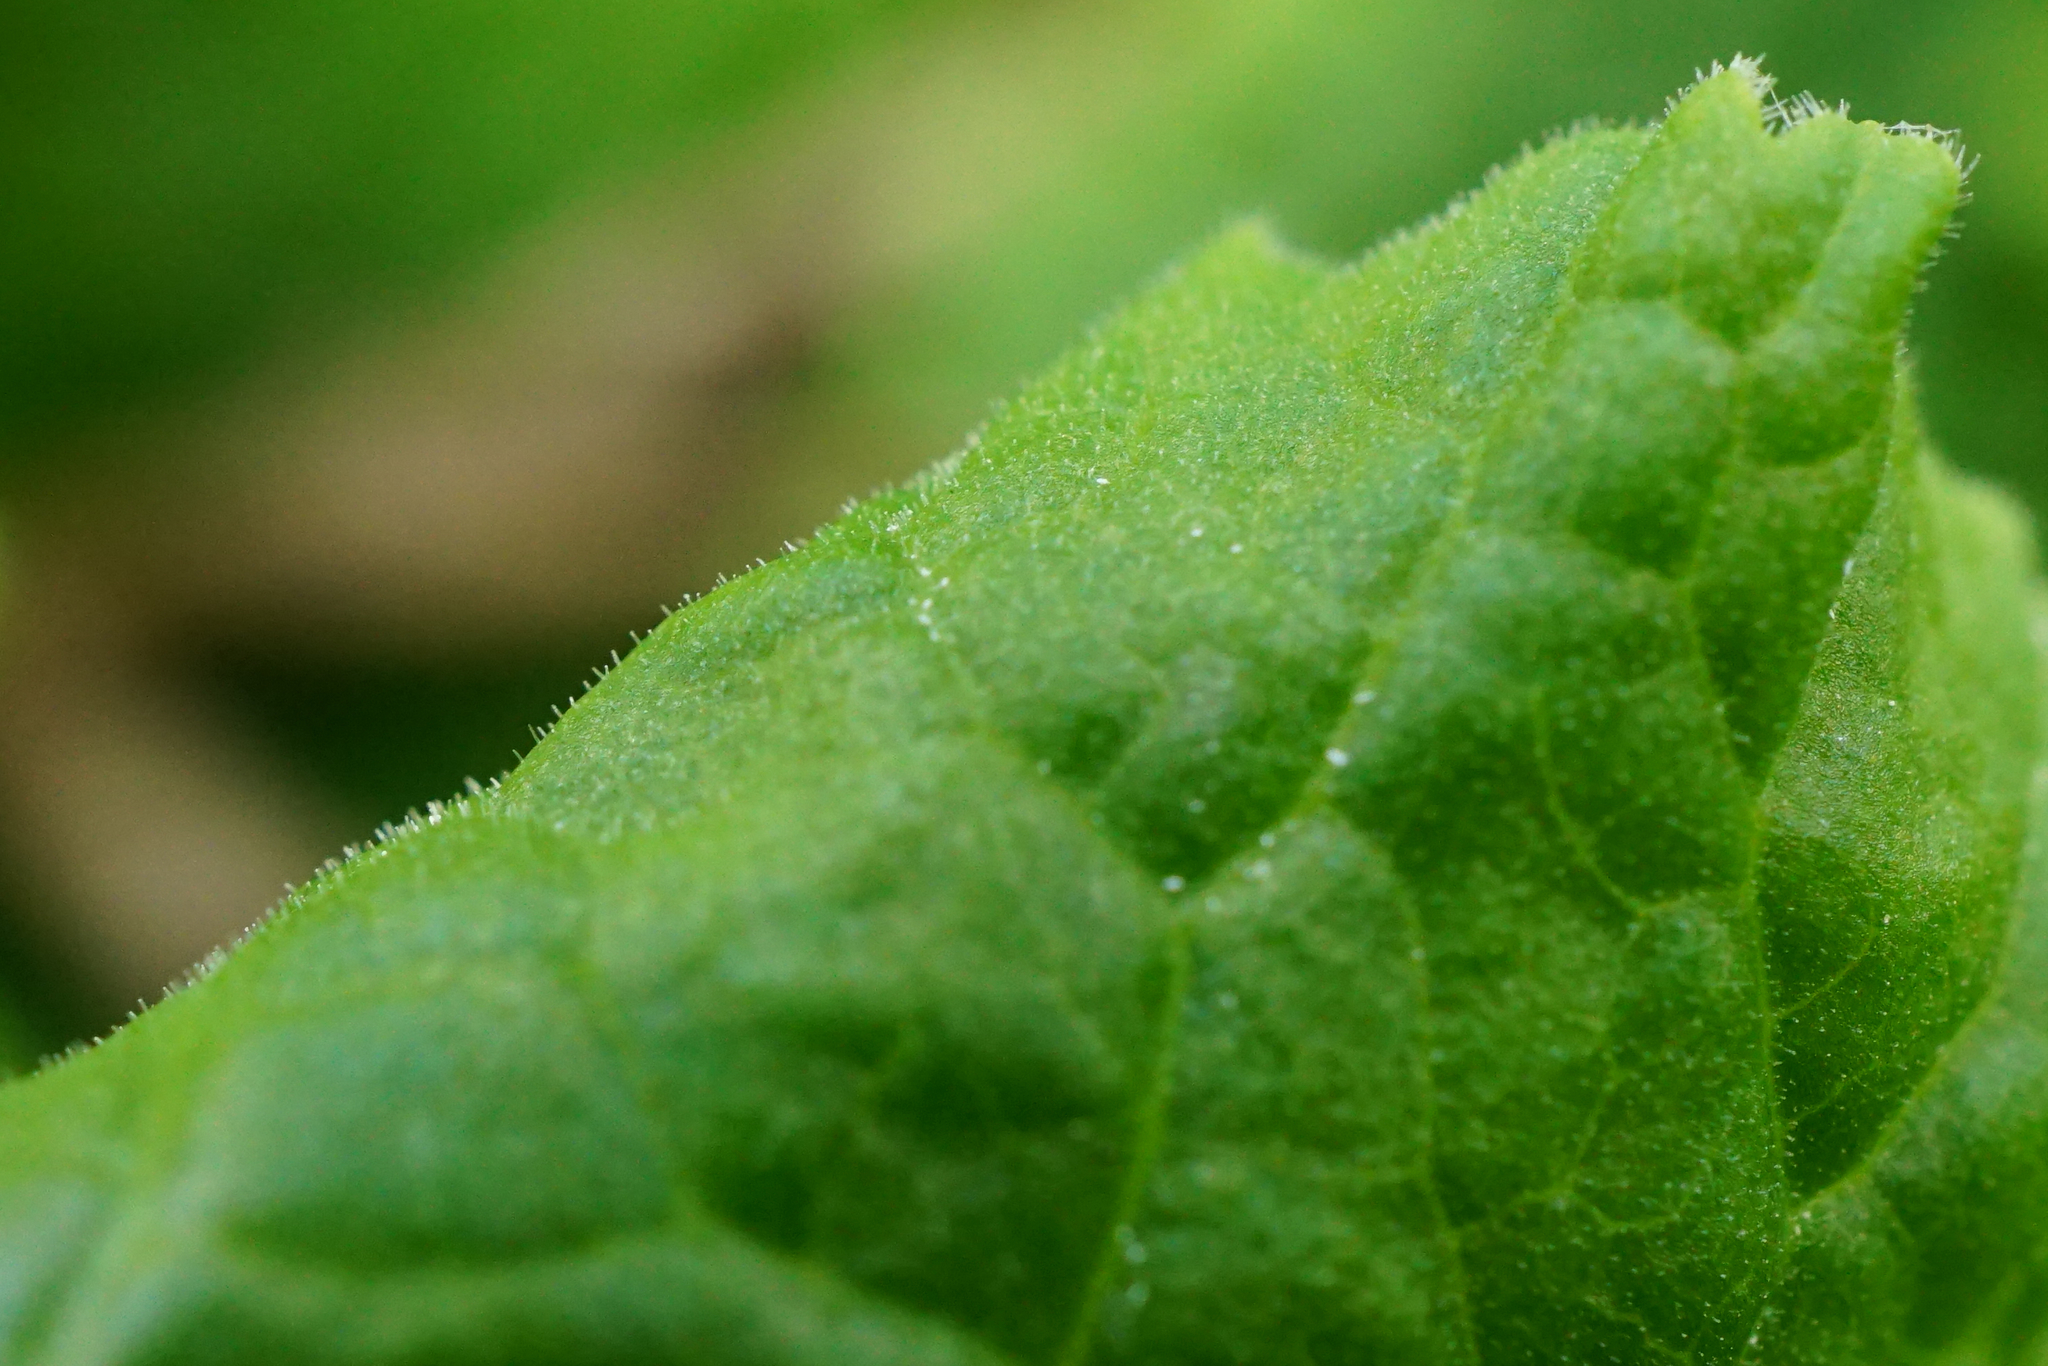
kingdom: Plantae
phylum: Tracheophyta
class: Magnoliopsida
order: Ericales
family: Primulaceae
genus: Primula
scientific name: Primula polyantha
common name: False oxlip
